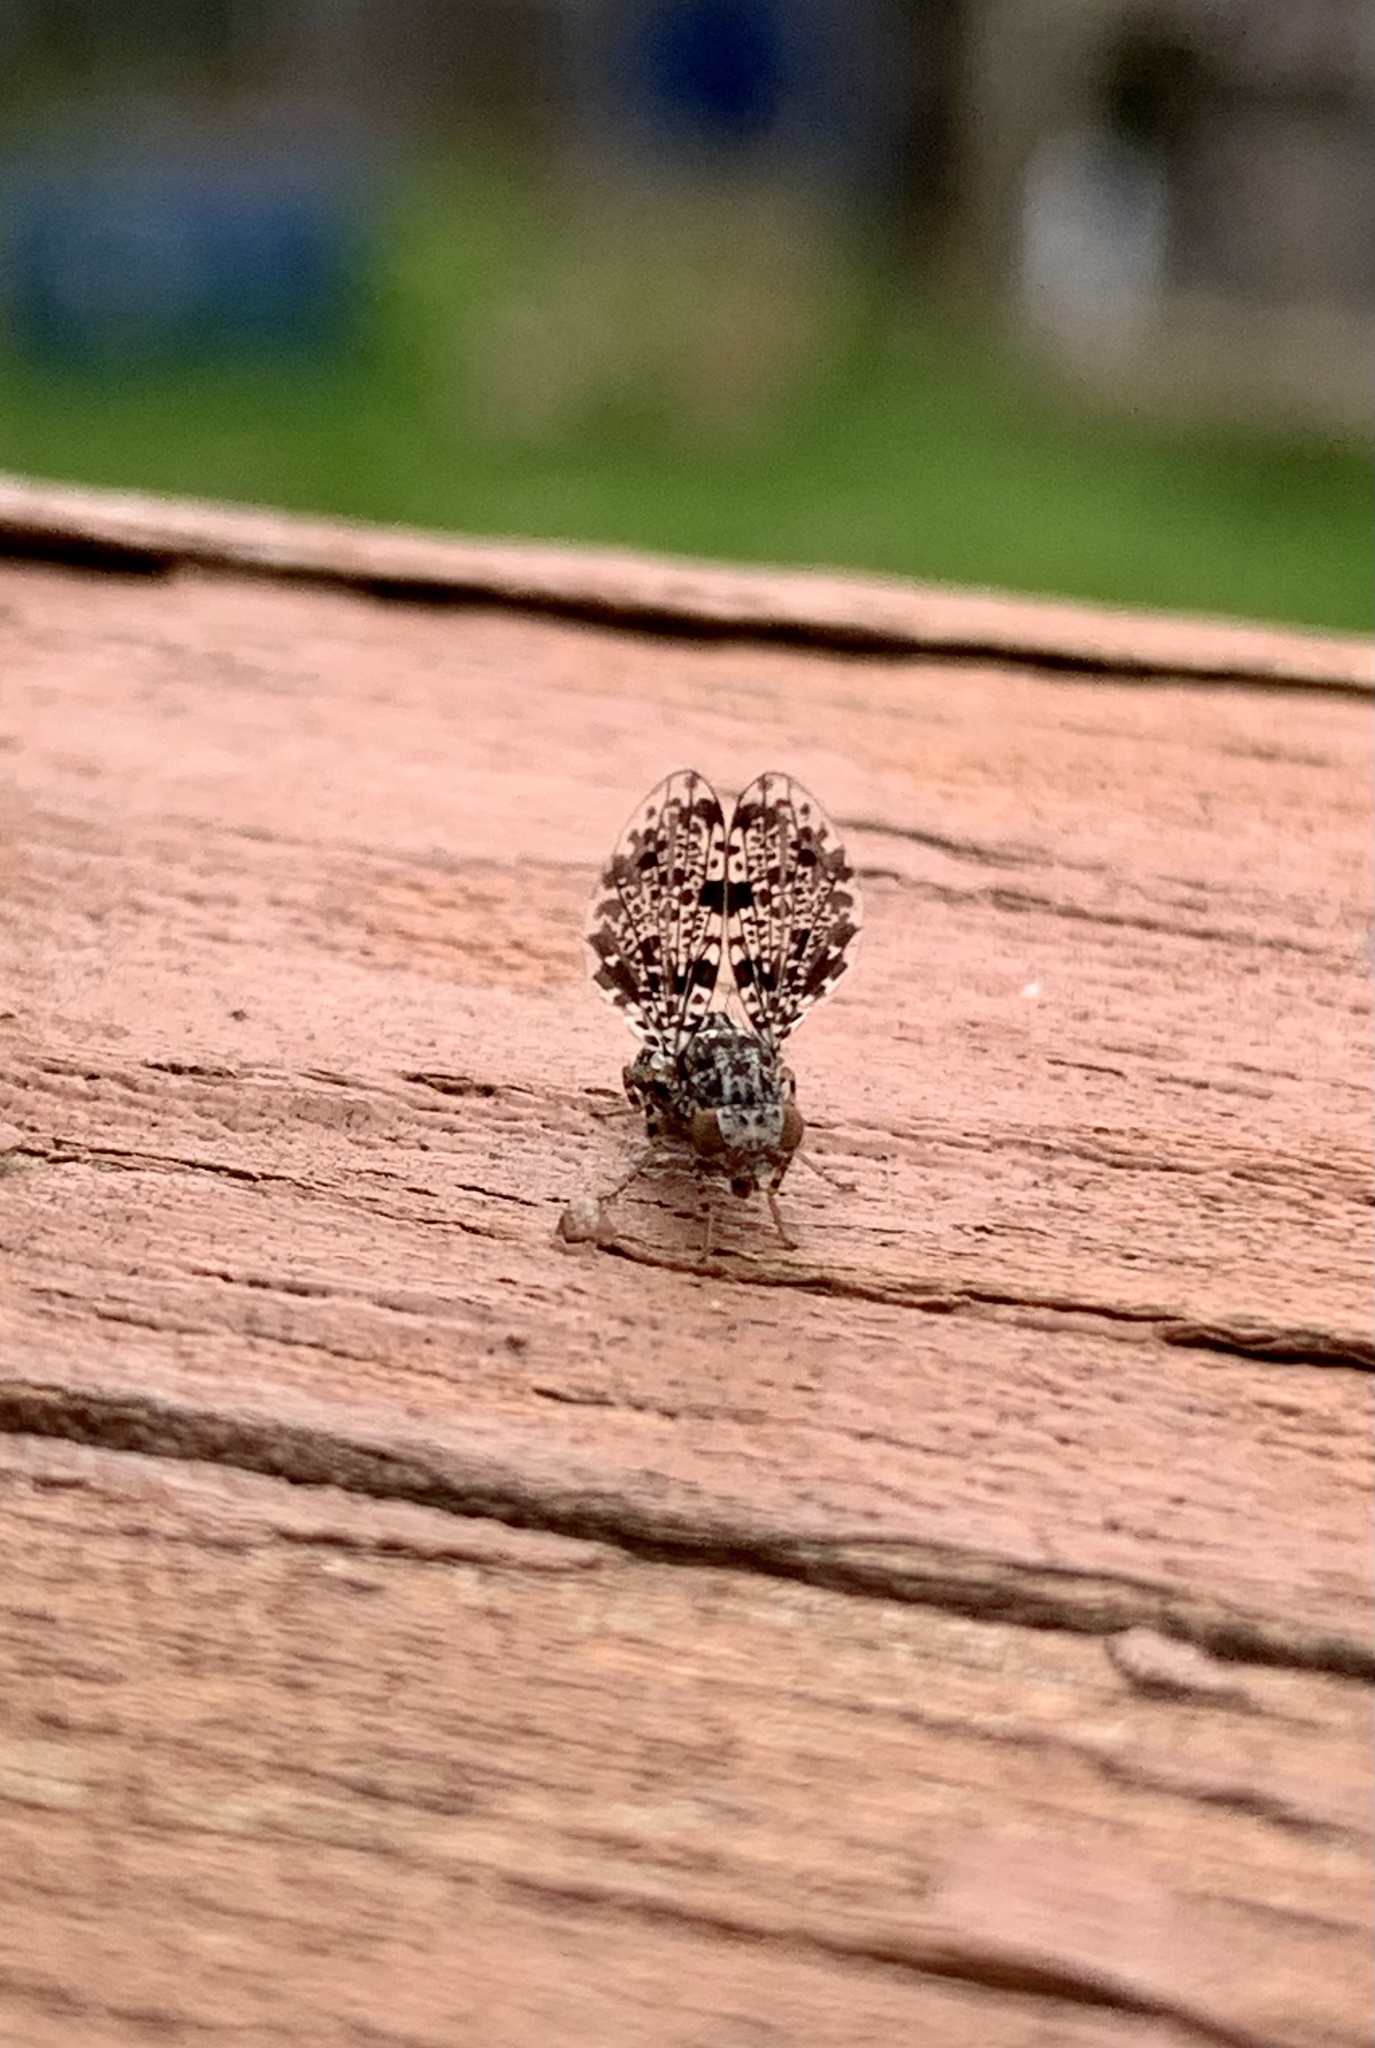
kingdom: Animalia
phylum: Arthropoda
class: Insecta
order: Diptera
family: Ulidiidae
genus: Callopistromyia
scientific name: Callopistromyia annulipes
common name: Peacock fly
